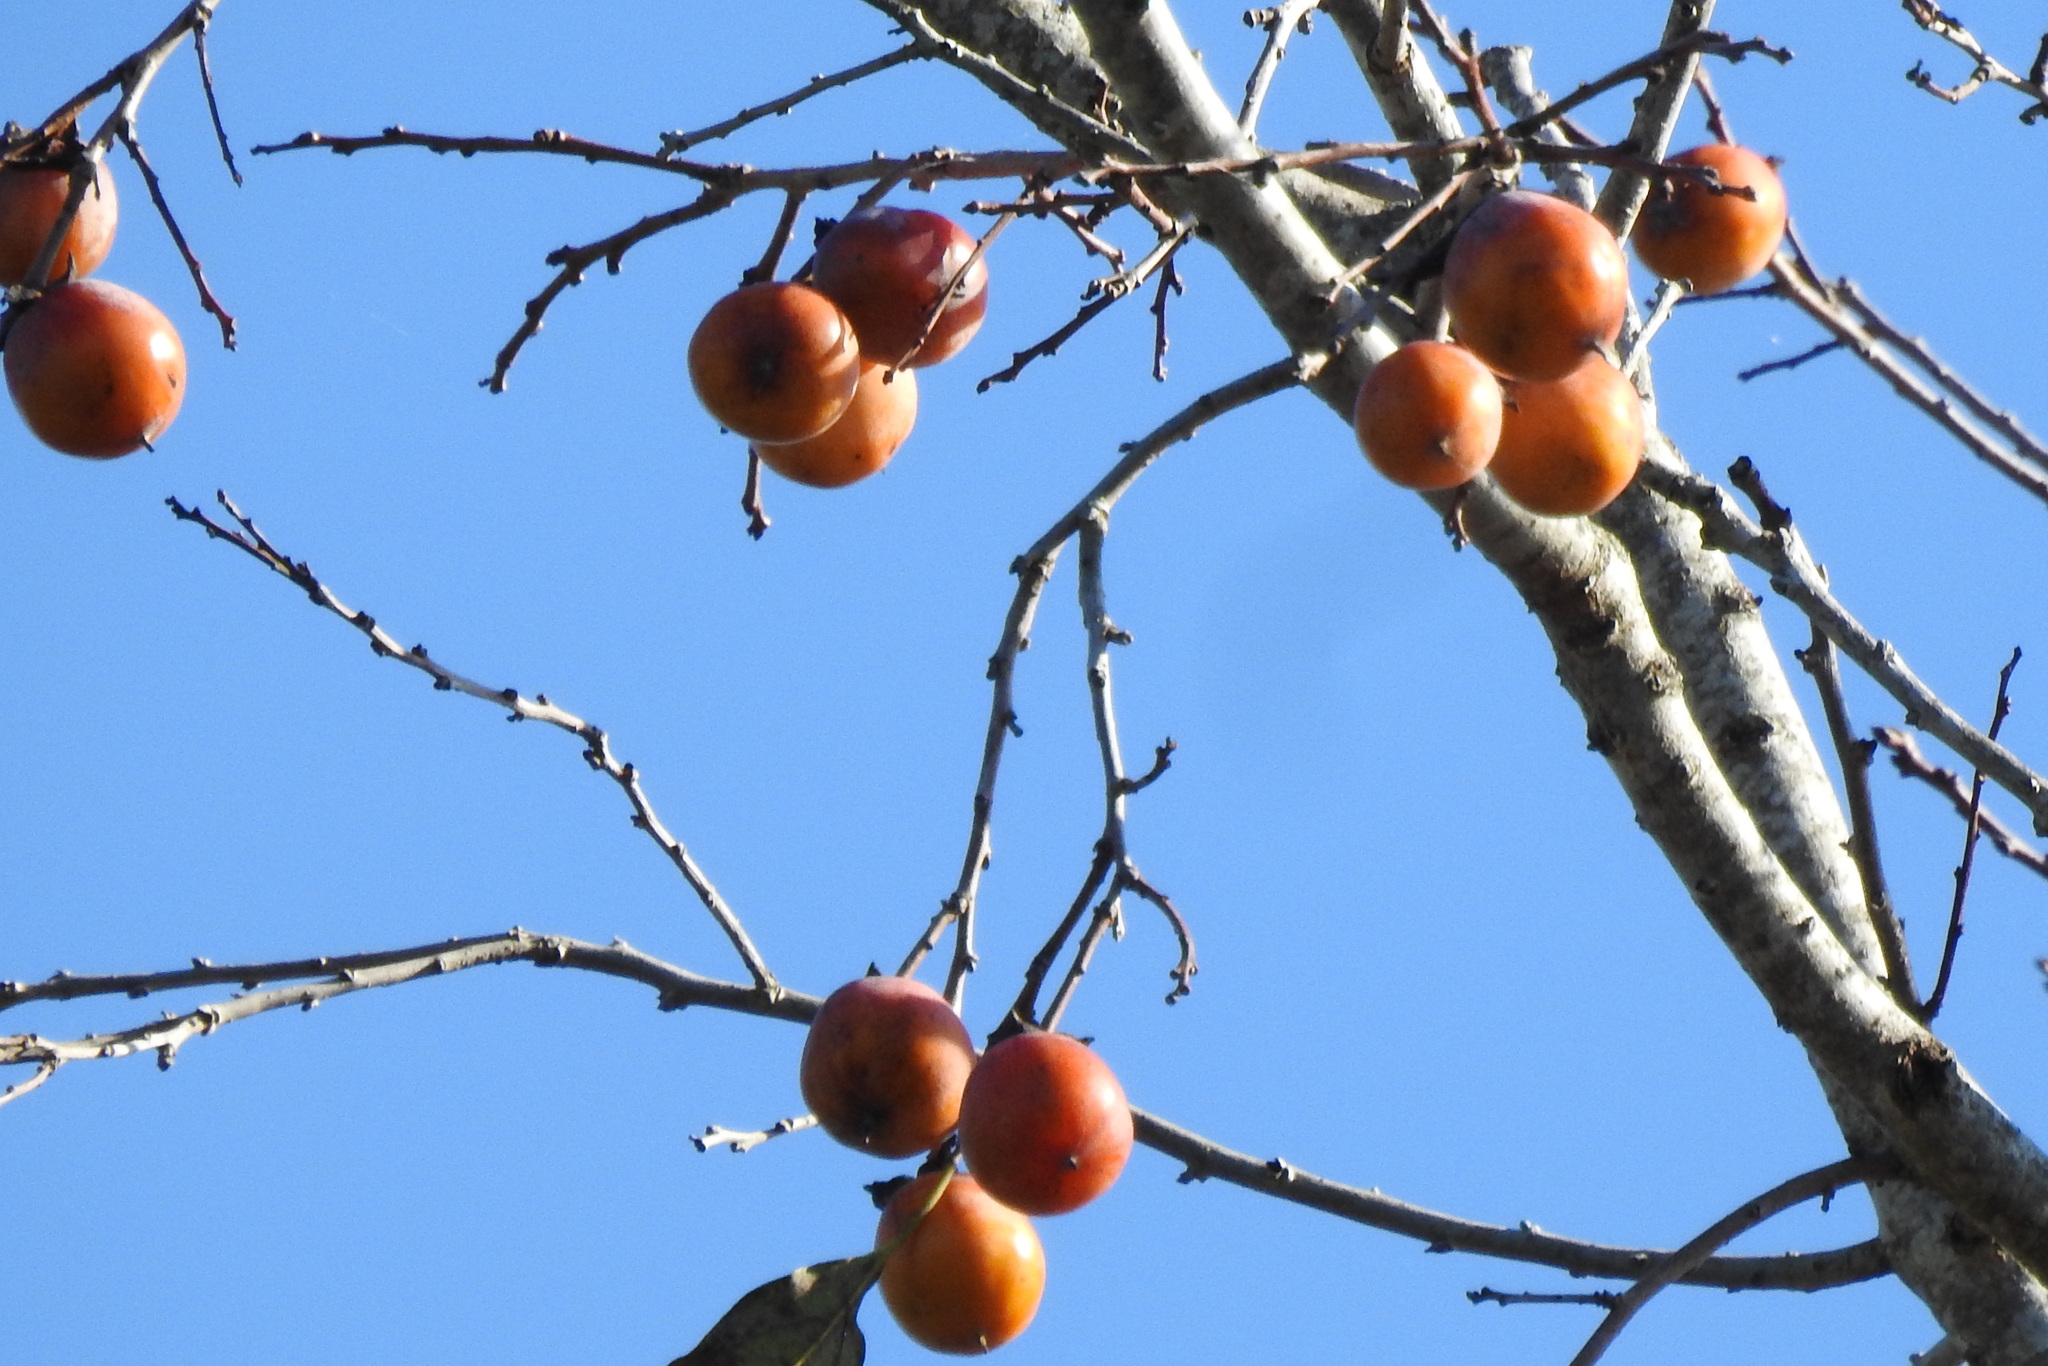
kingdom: Plantae
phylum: Tracheophyta
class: Magnoliopsida
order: Ericales
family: Ebenaceae
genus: Diospyros
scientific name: Diospyros virginiana
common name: Persimmon
